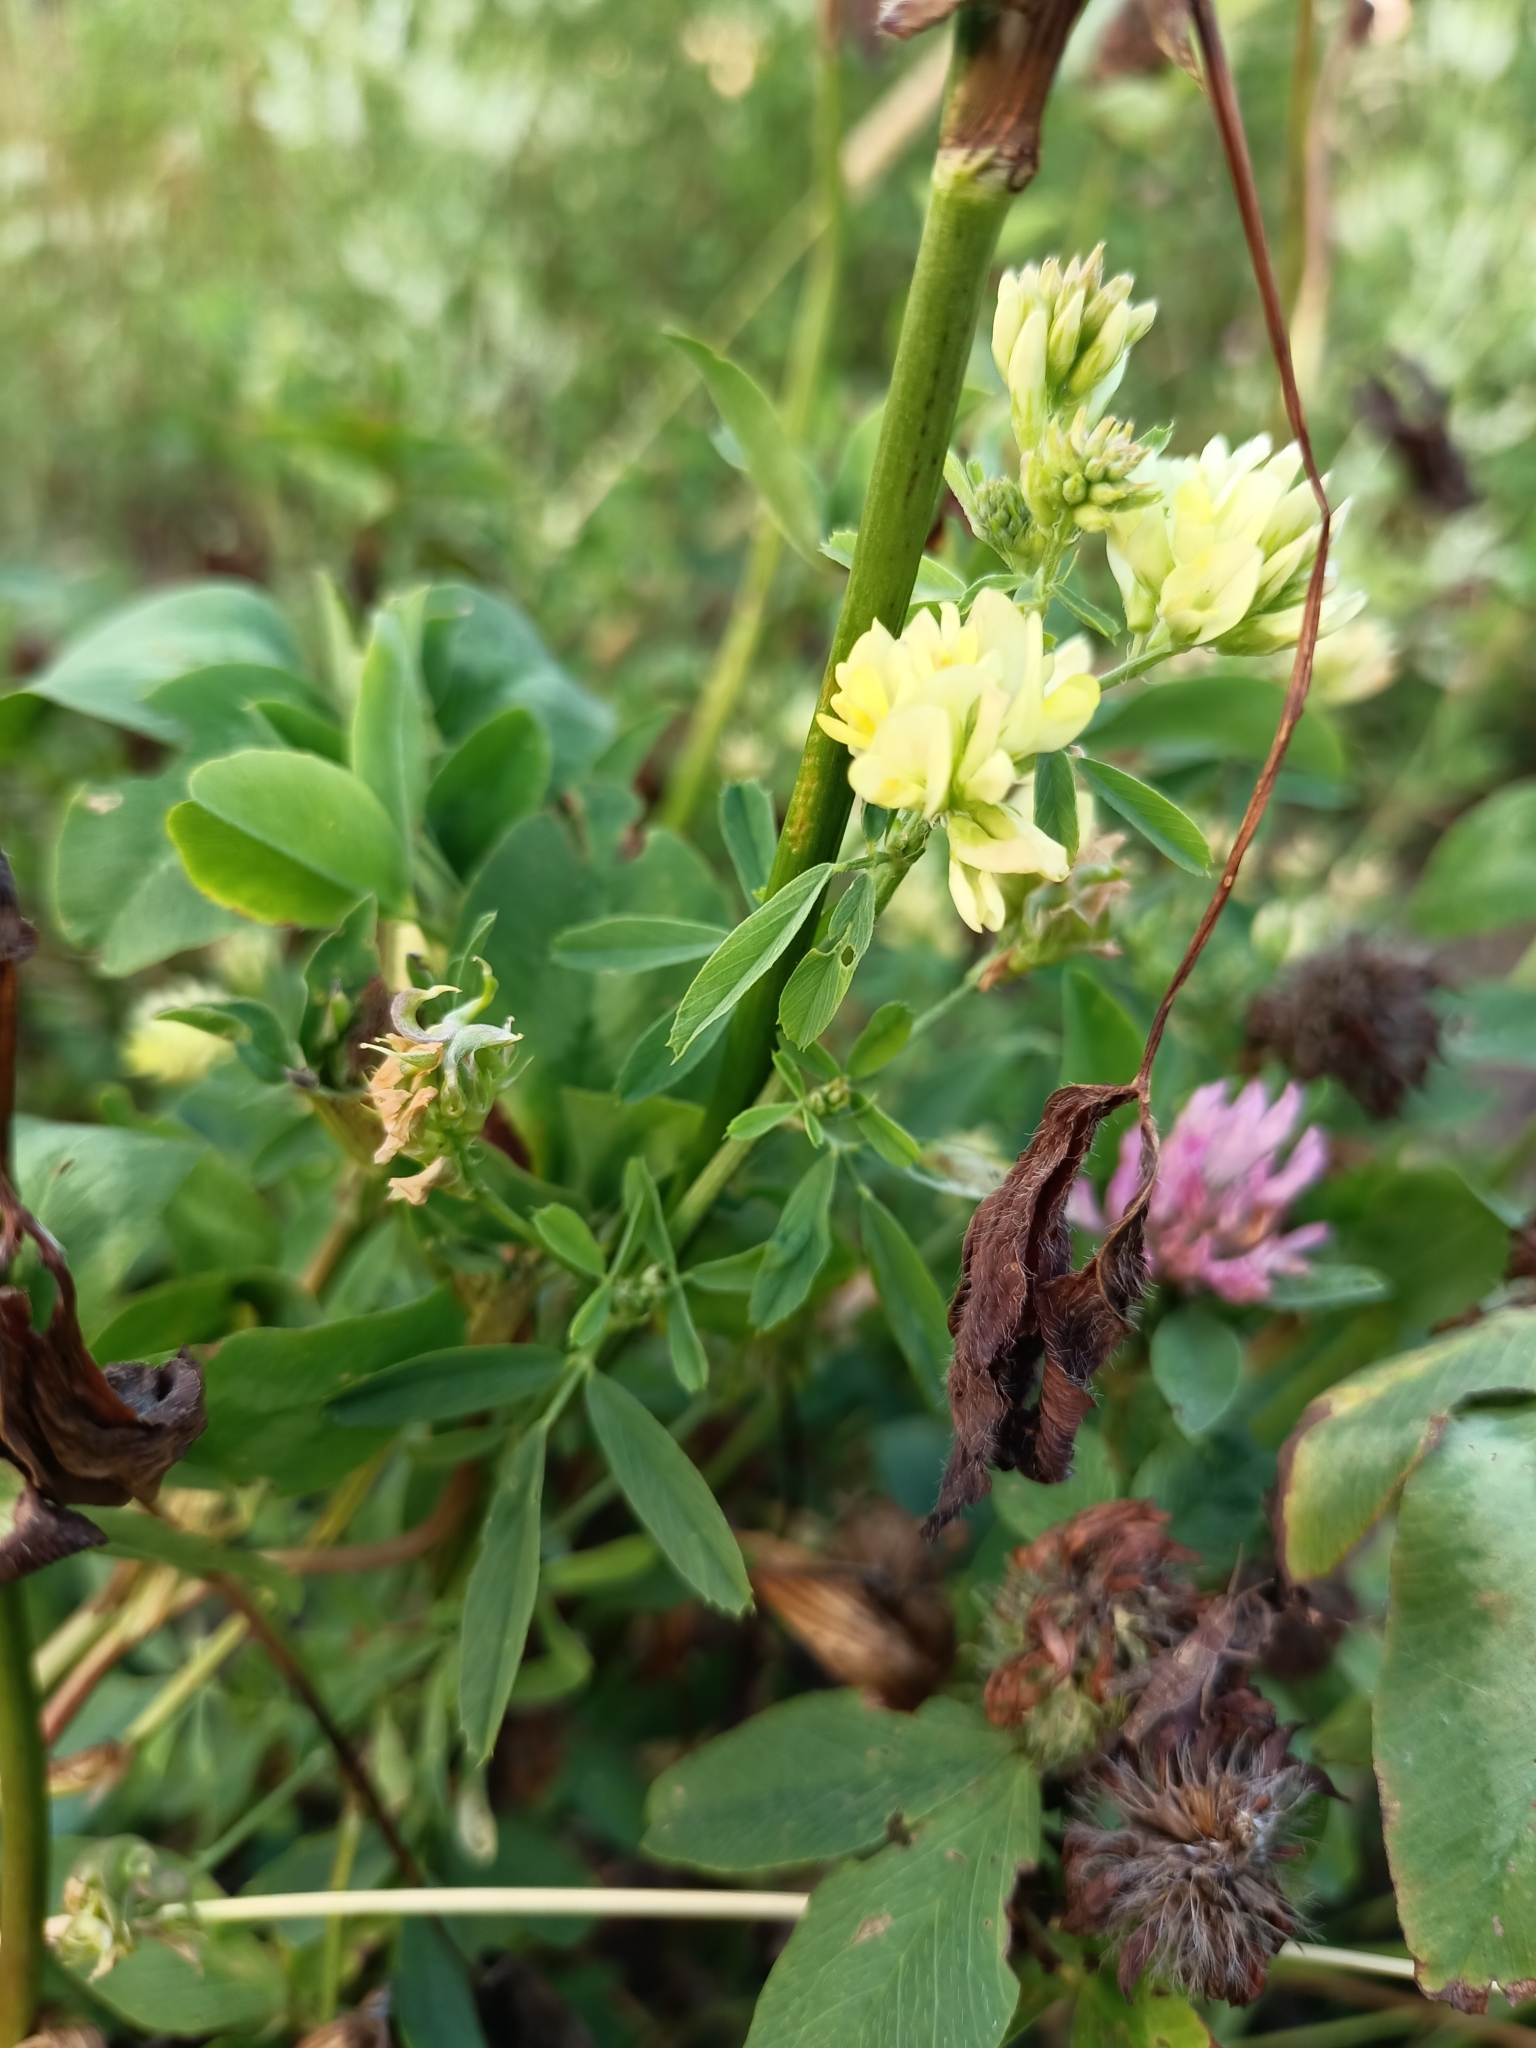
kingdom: Plantae
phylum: Tracheophyta
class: Magnoliopsida
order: Fabales
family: Fabaceae
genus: Medicago
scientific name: Medicago varia
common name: Sand lucerne
